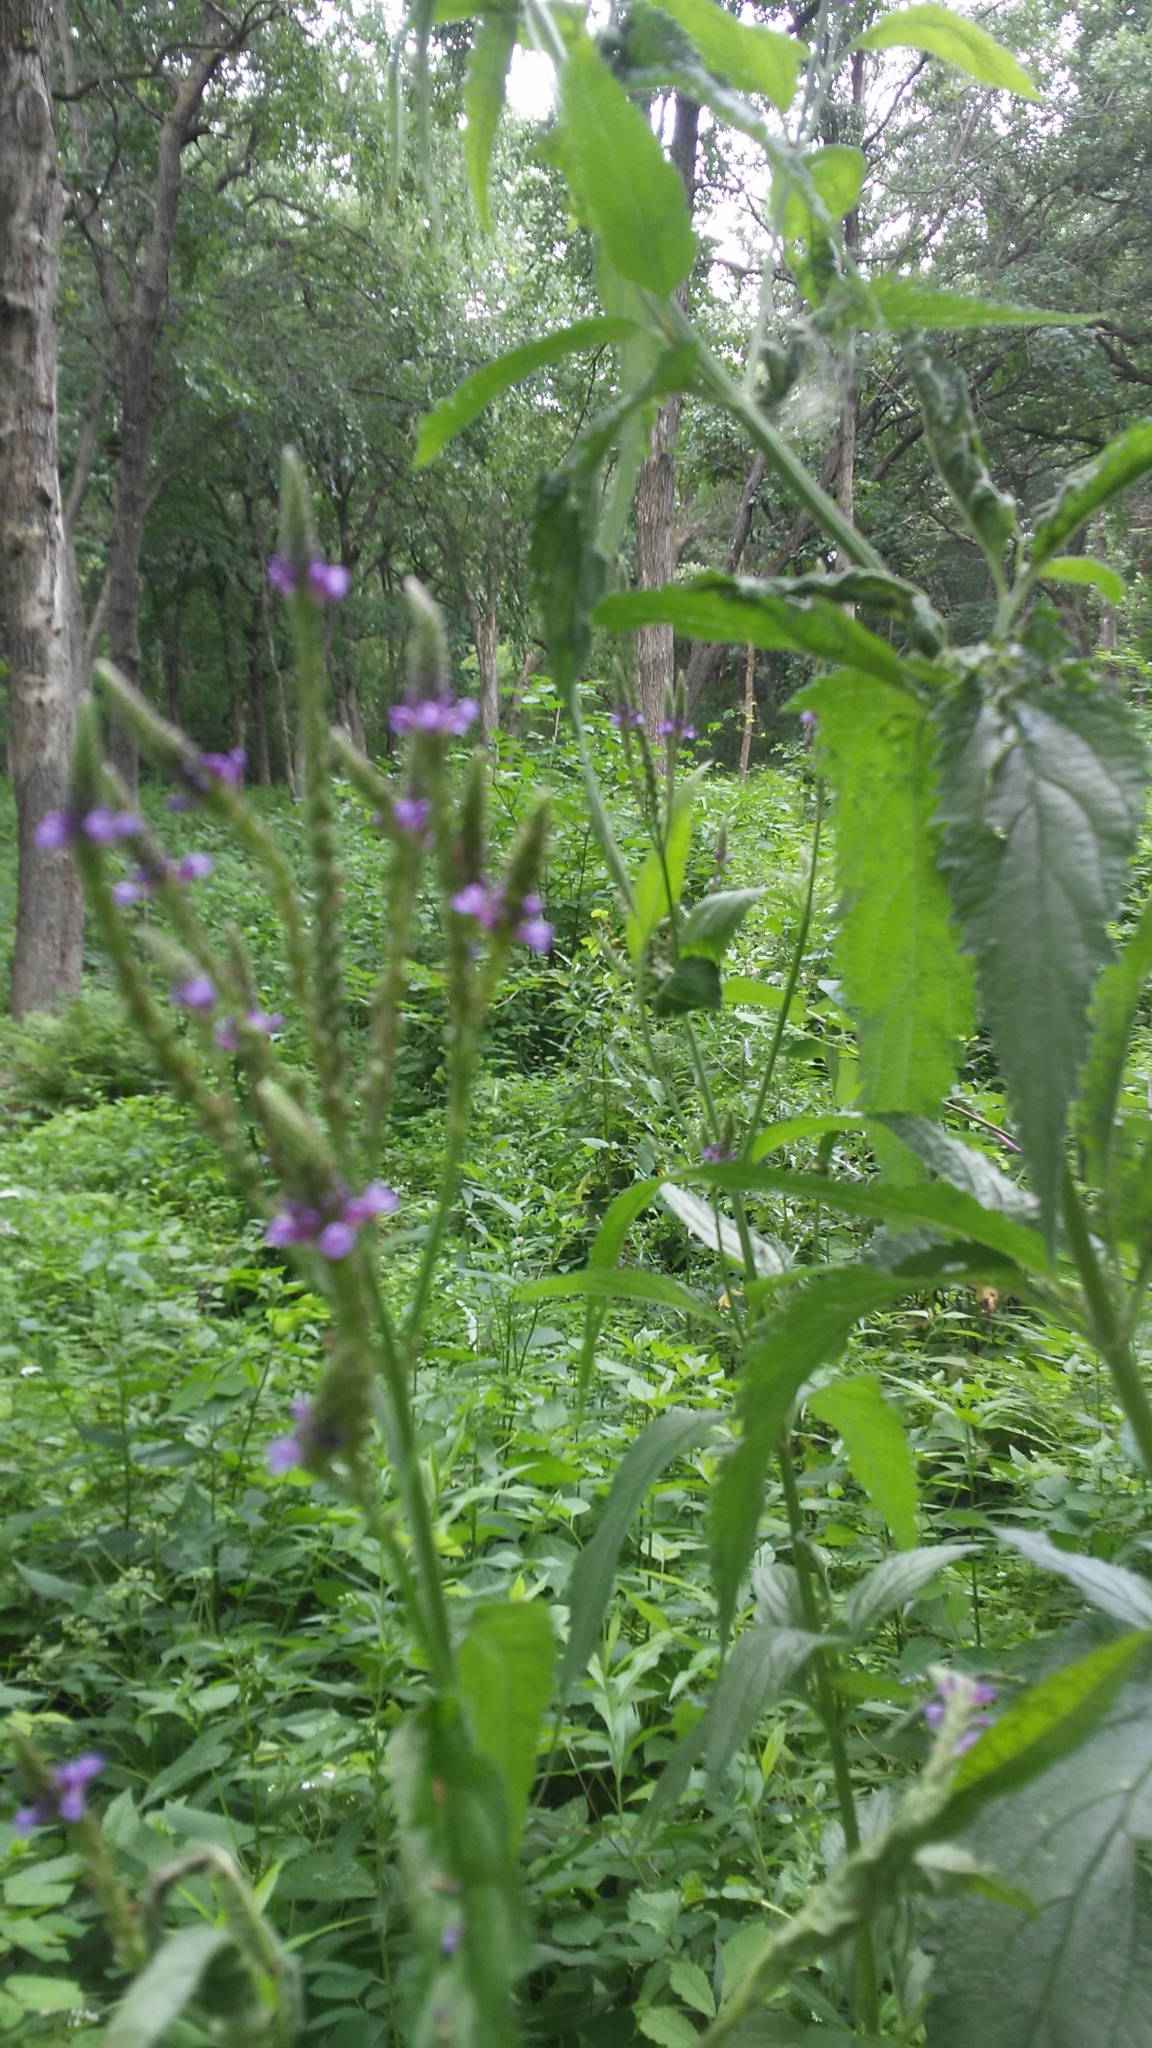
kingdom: Plantae
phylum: Tracheophyta
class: Magnoliopsida
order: Lamiales
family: Verbenaceae
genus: Verbena
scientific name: Verbena hastata
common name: American blue vervain
